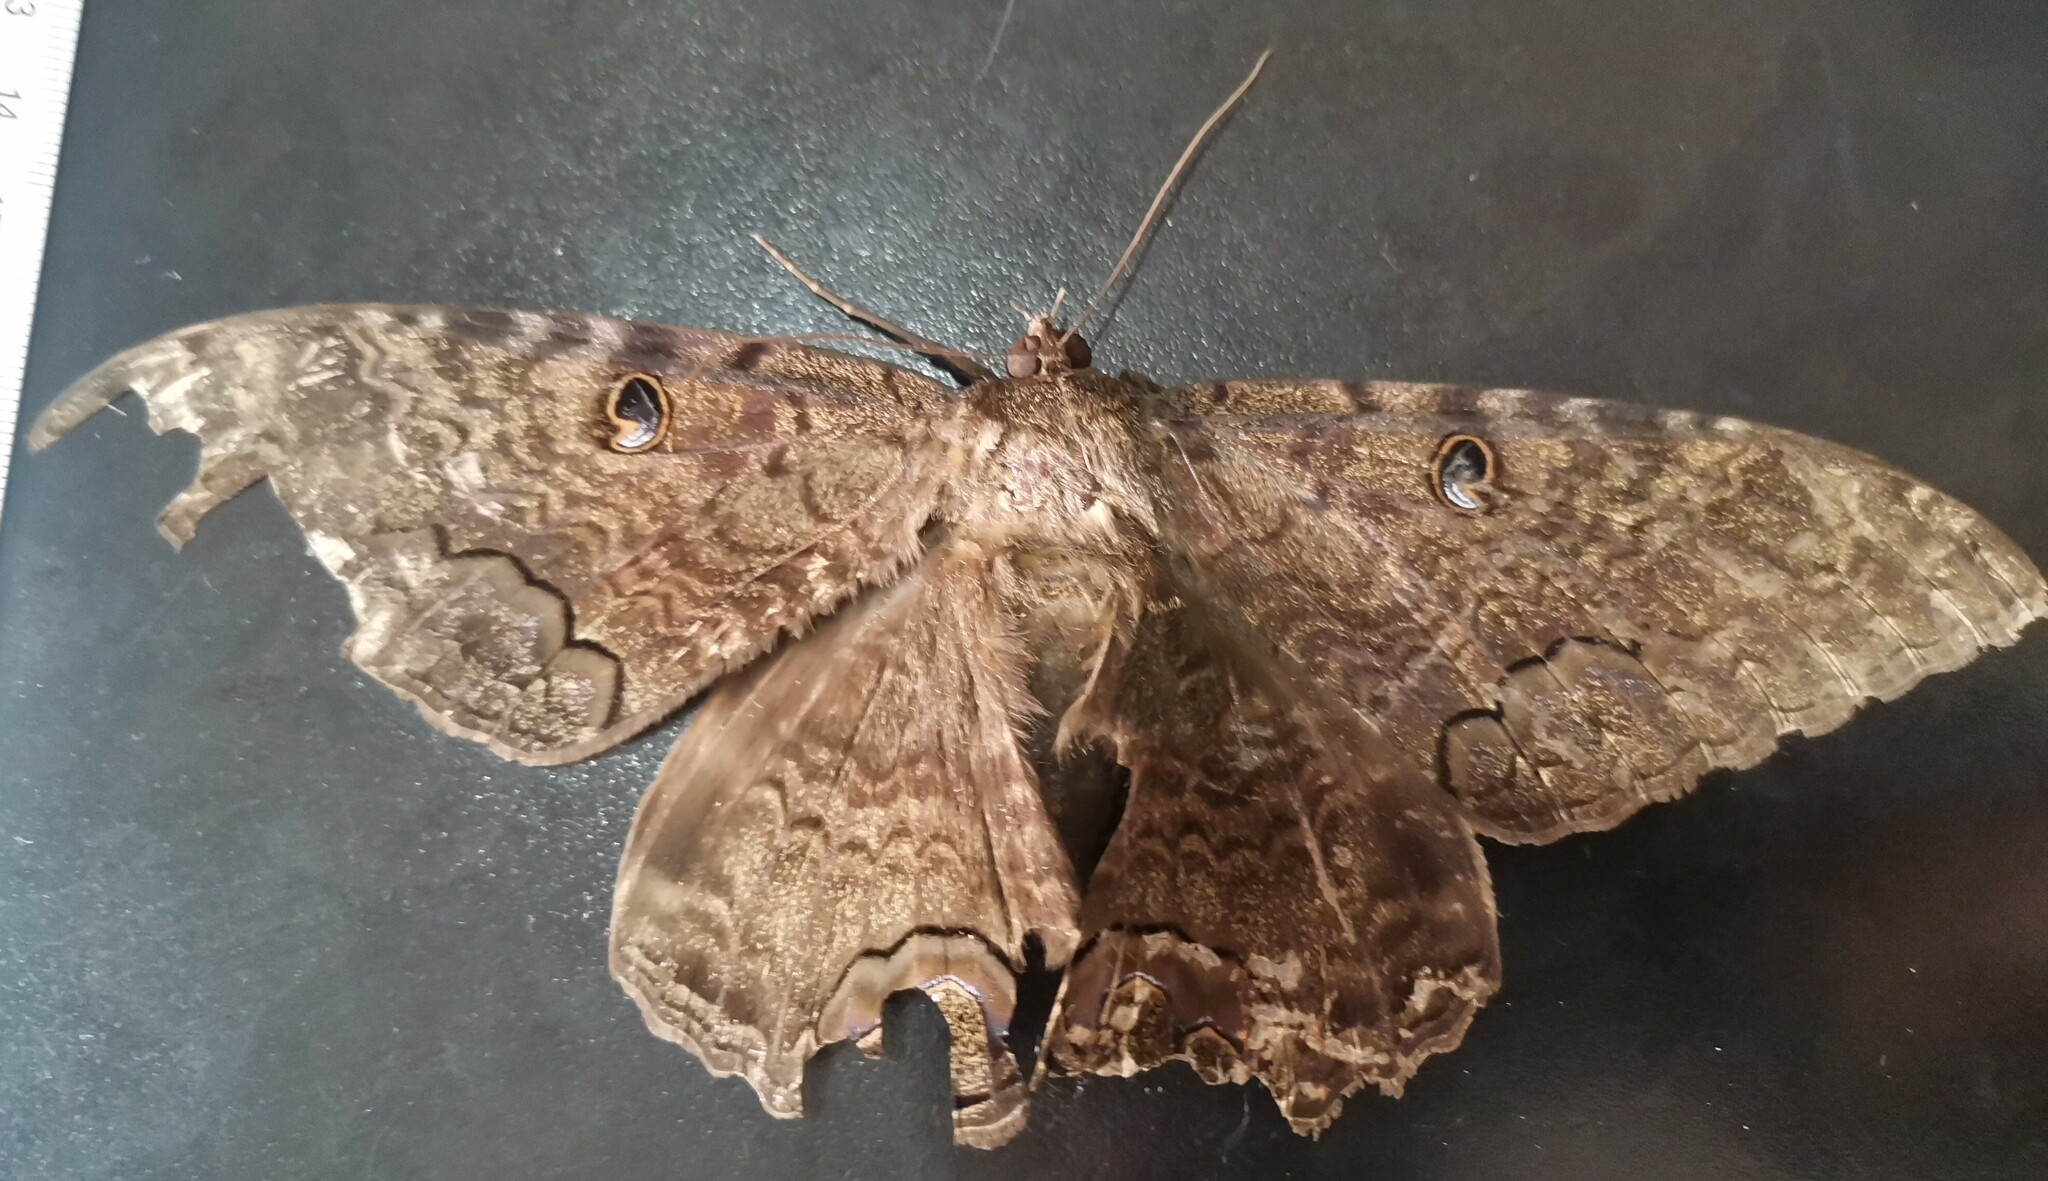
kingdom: Animalia
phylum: Arthropoda
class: Insecta
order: Lepidoptera
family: Erebidae
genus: Ascalapha
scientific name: Ascalapha odorata
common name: Black witch
